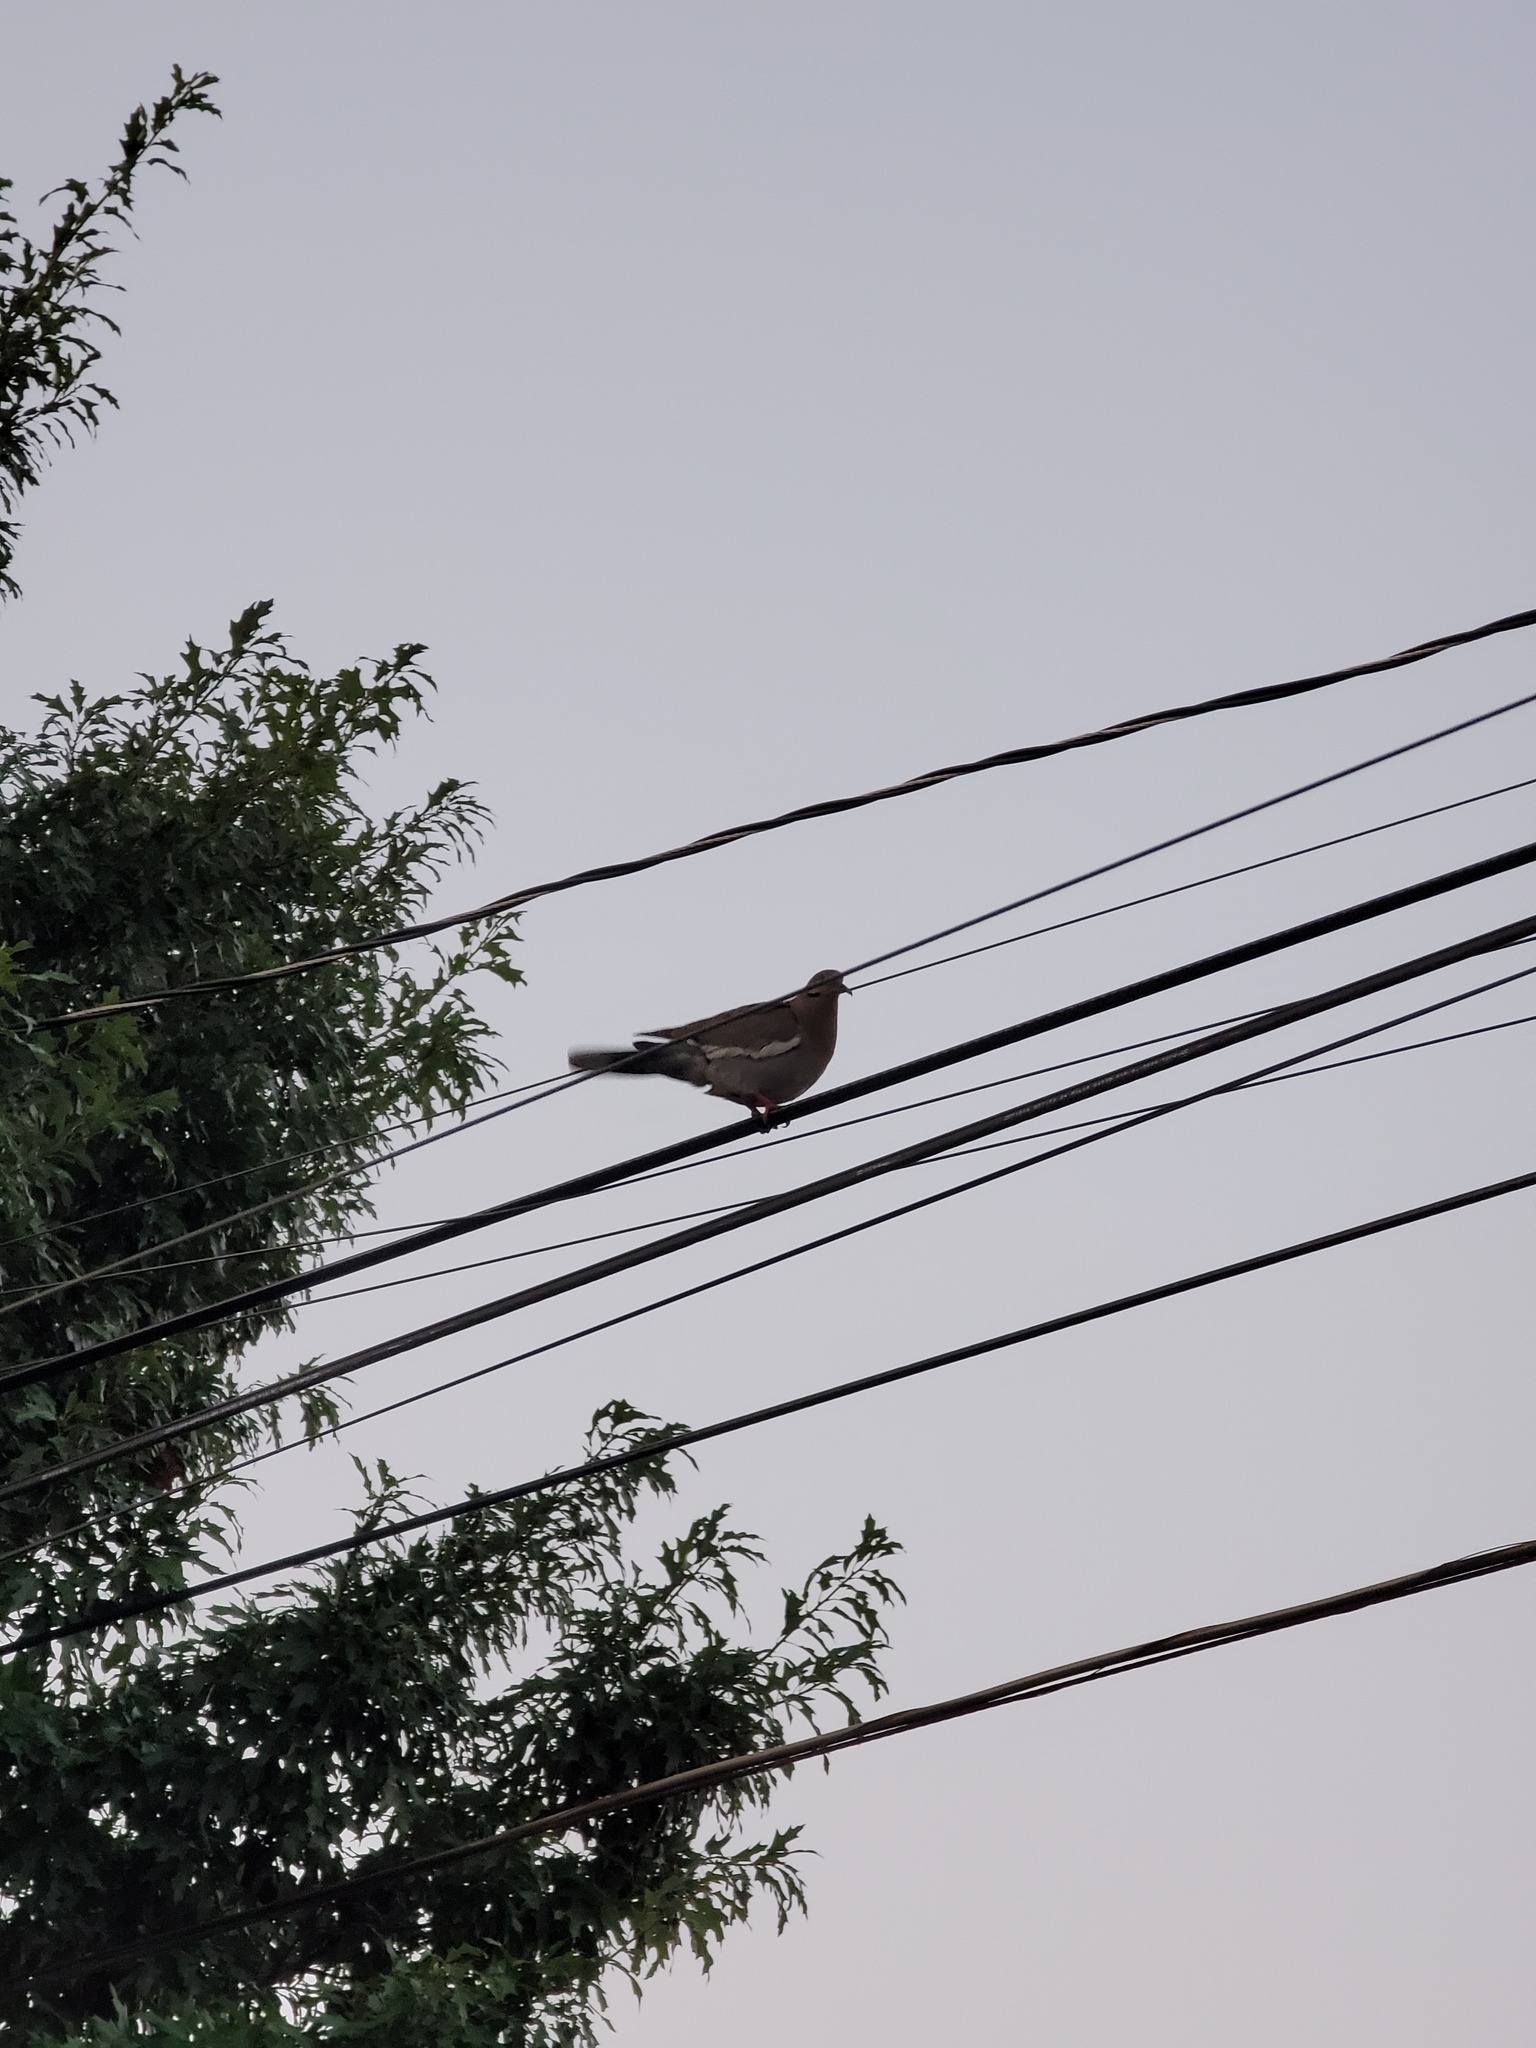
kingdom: Animalia
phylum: Chordata
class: Aves
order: Columbiformes
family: Columbidae
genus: Zenaida
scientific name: Zenaida asiatica
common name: White-winged dove
